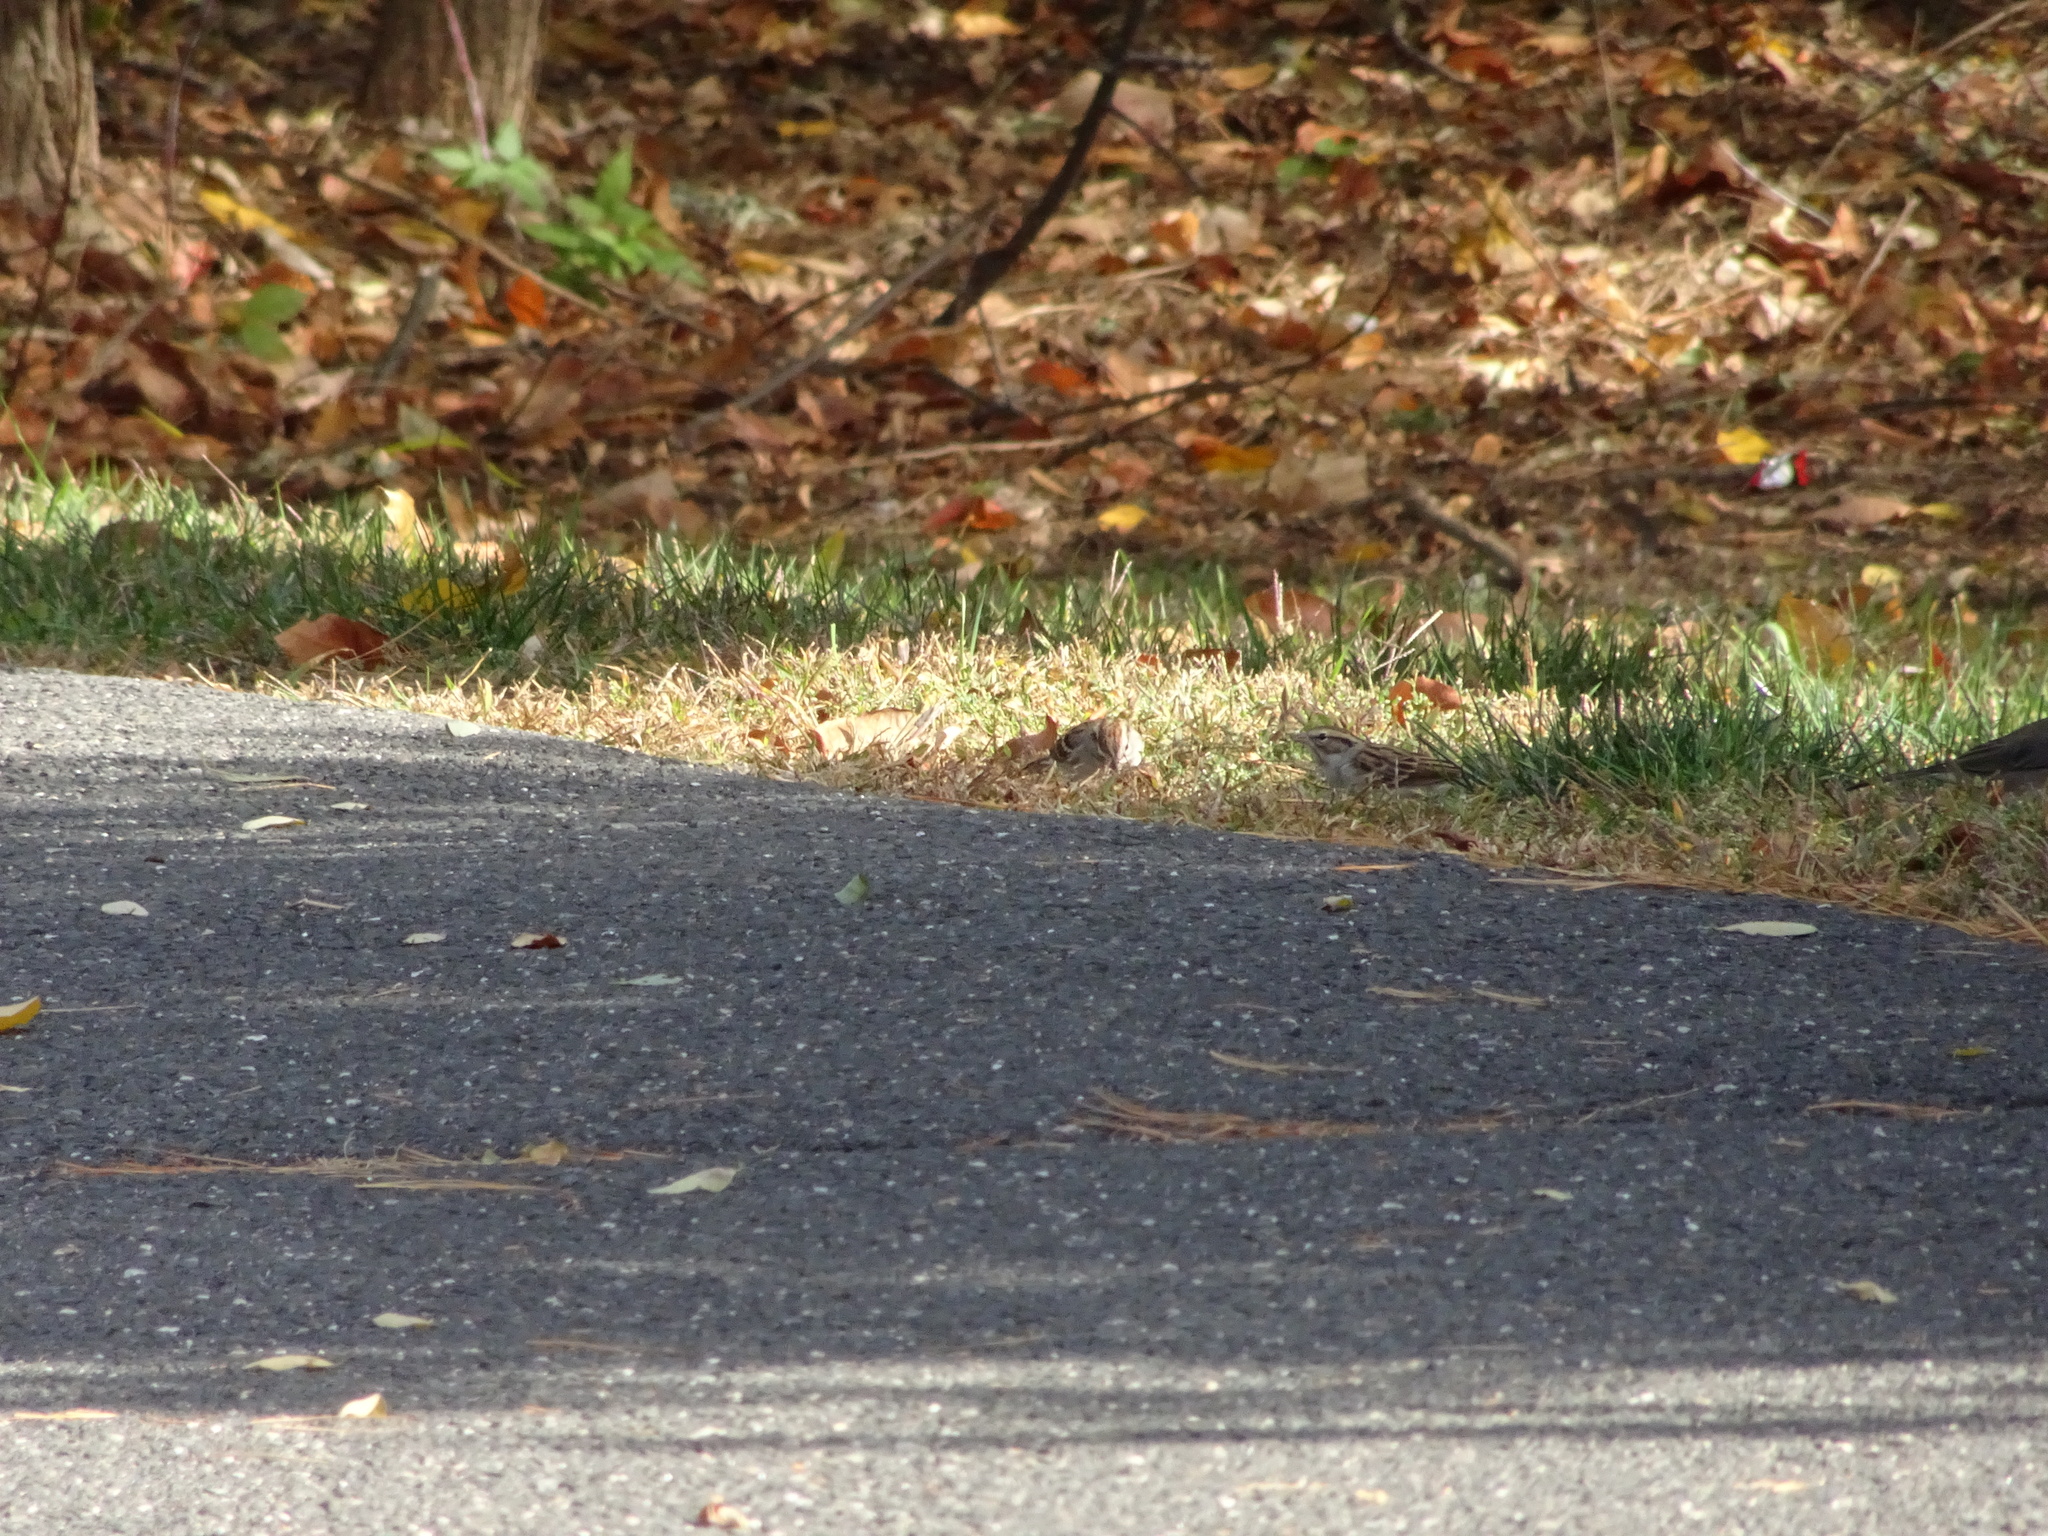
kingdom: Animalia
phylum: Chordata
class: Aves
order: Passeriformes
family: Passerellidae
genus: Spizella
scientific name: Spizella passerina
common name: Chipping sparrow
